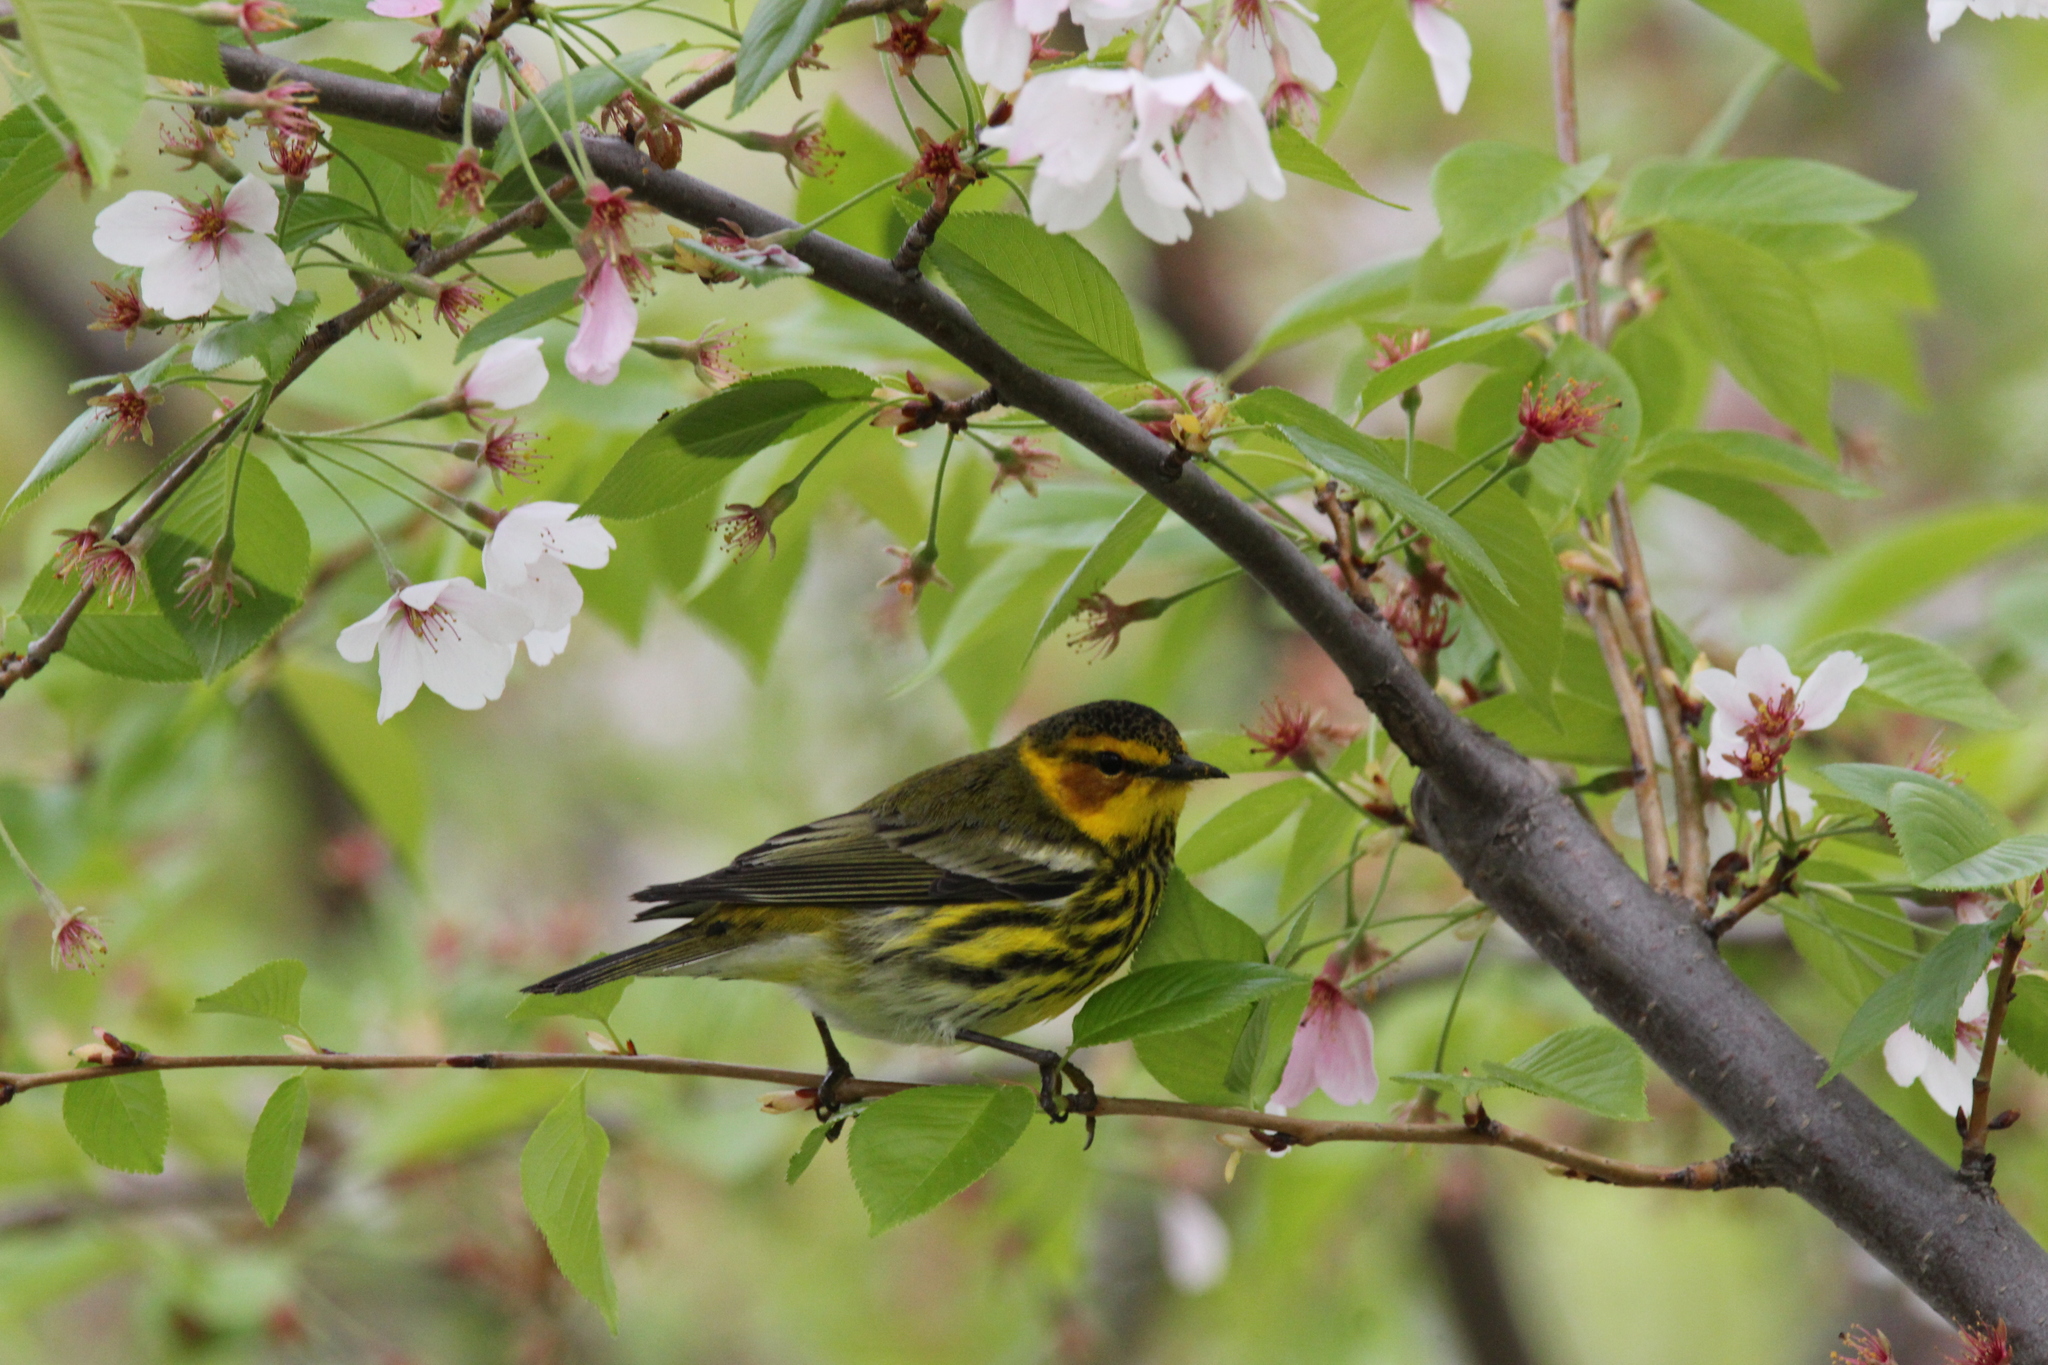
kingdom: Animalia
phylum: Chordata
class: Aves
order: Passeriformes
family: Parulidae
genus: Setophaga
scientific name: Setophaga tigrina
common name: Cape may warbler
